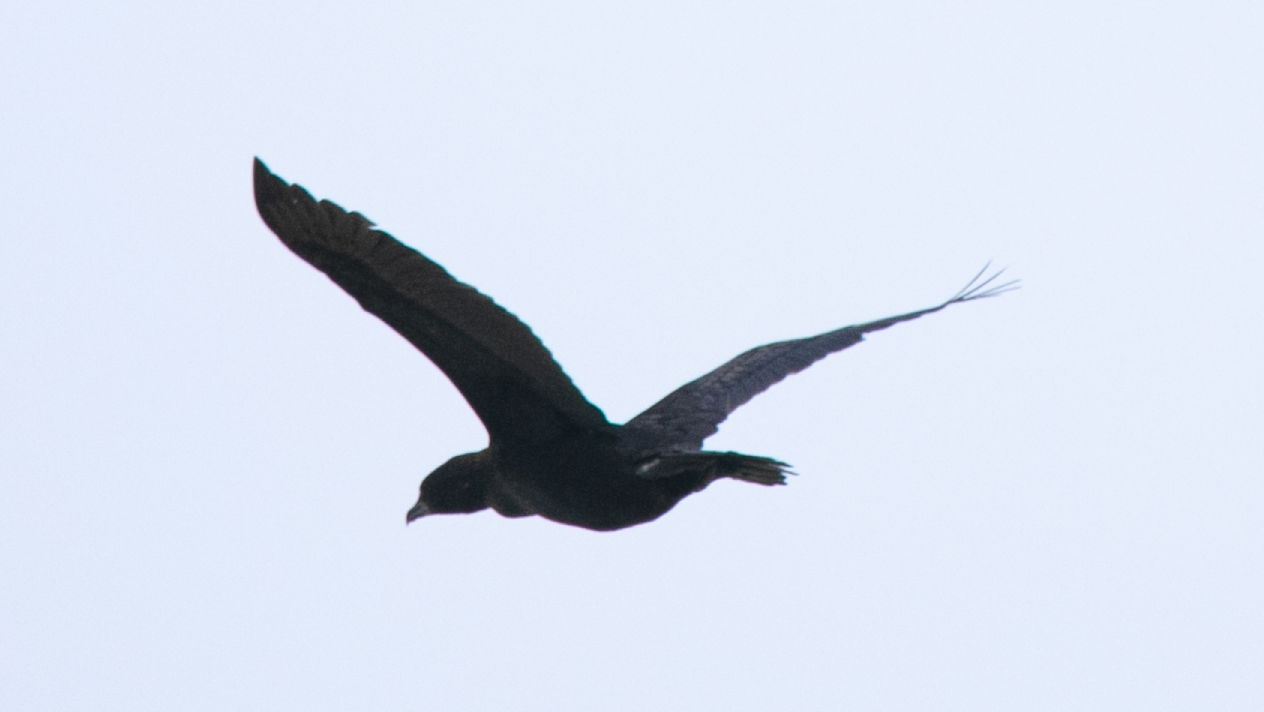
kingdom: Animalia
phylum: Chordata
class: Aves
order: Suliformes
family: Phalacrocoracidae
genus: Microcarbo
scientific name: Microcarbo pygmaeus
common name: Pygmy cormorant
